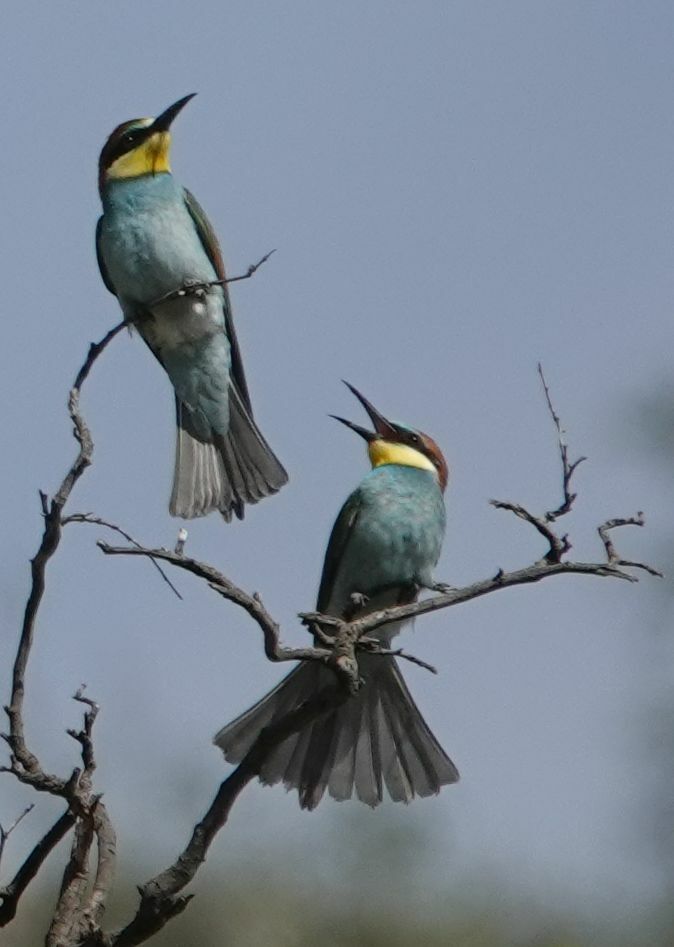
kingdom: Animalia
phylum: Chordata
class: Aves
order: Coraciiformes
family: Meropidae
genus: Merops
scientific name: Merops apiaster
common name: European bee-eater
